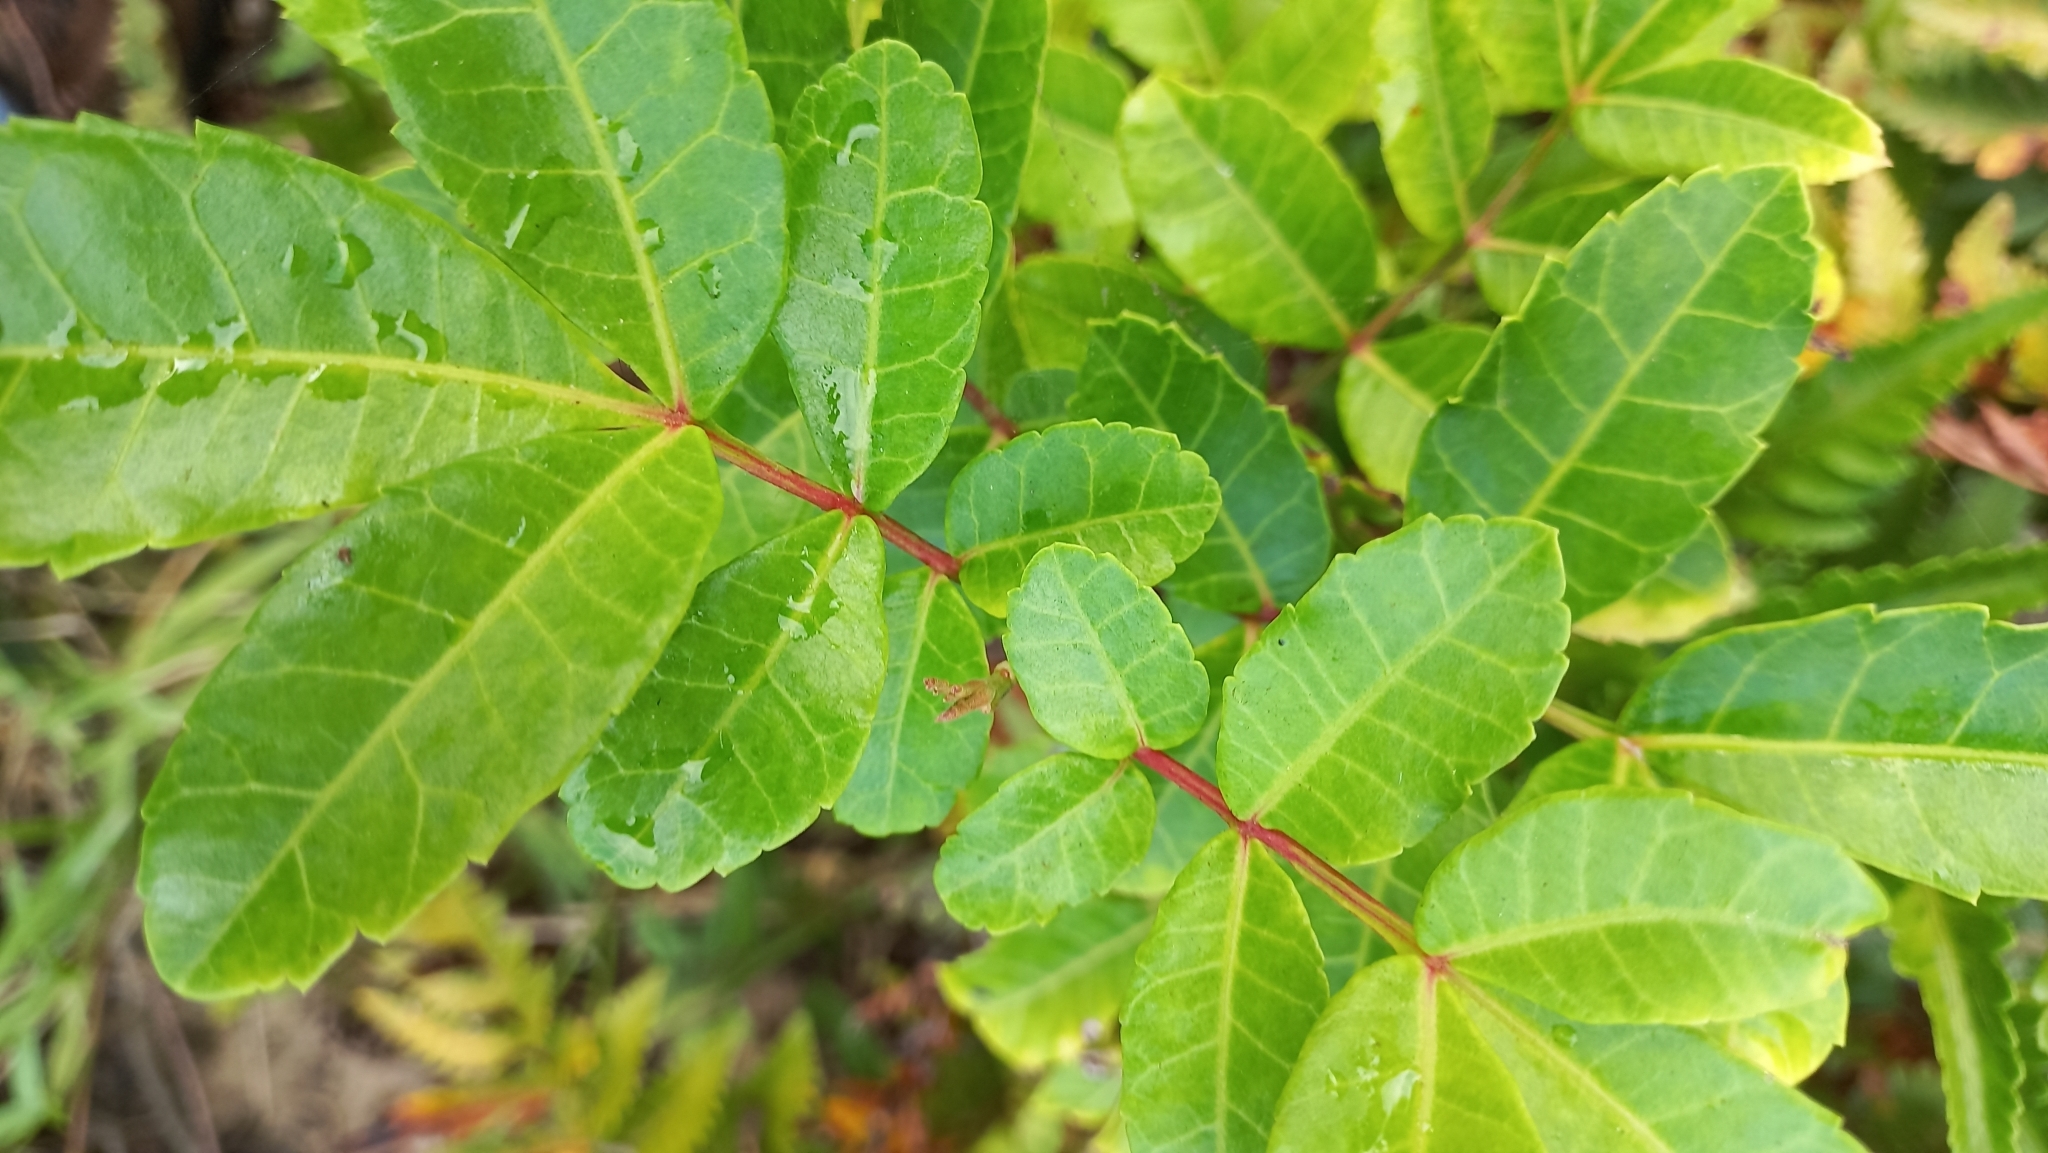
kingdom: Plantae
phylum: Tracheophyta
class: Magnoliopsida
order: Sapindales
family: Anacardiaceae
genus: Schinus
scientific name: Schinus terebinthifolia
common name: Brazilian peppertree
